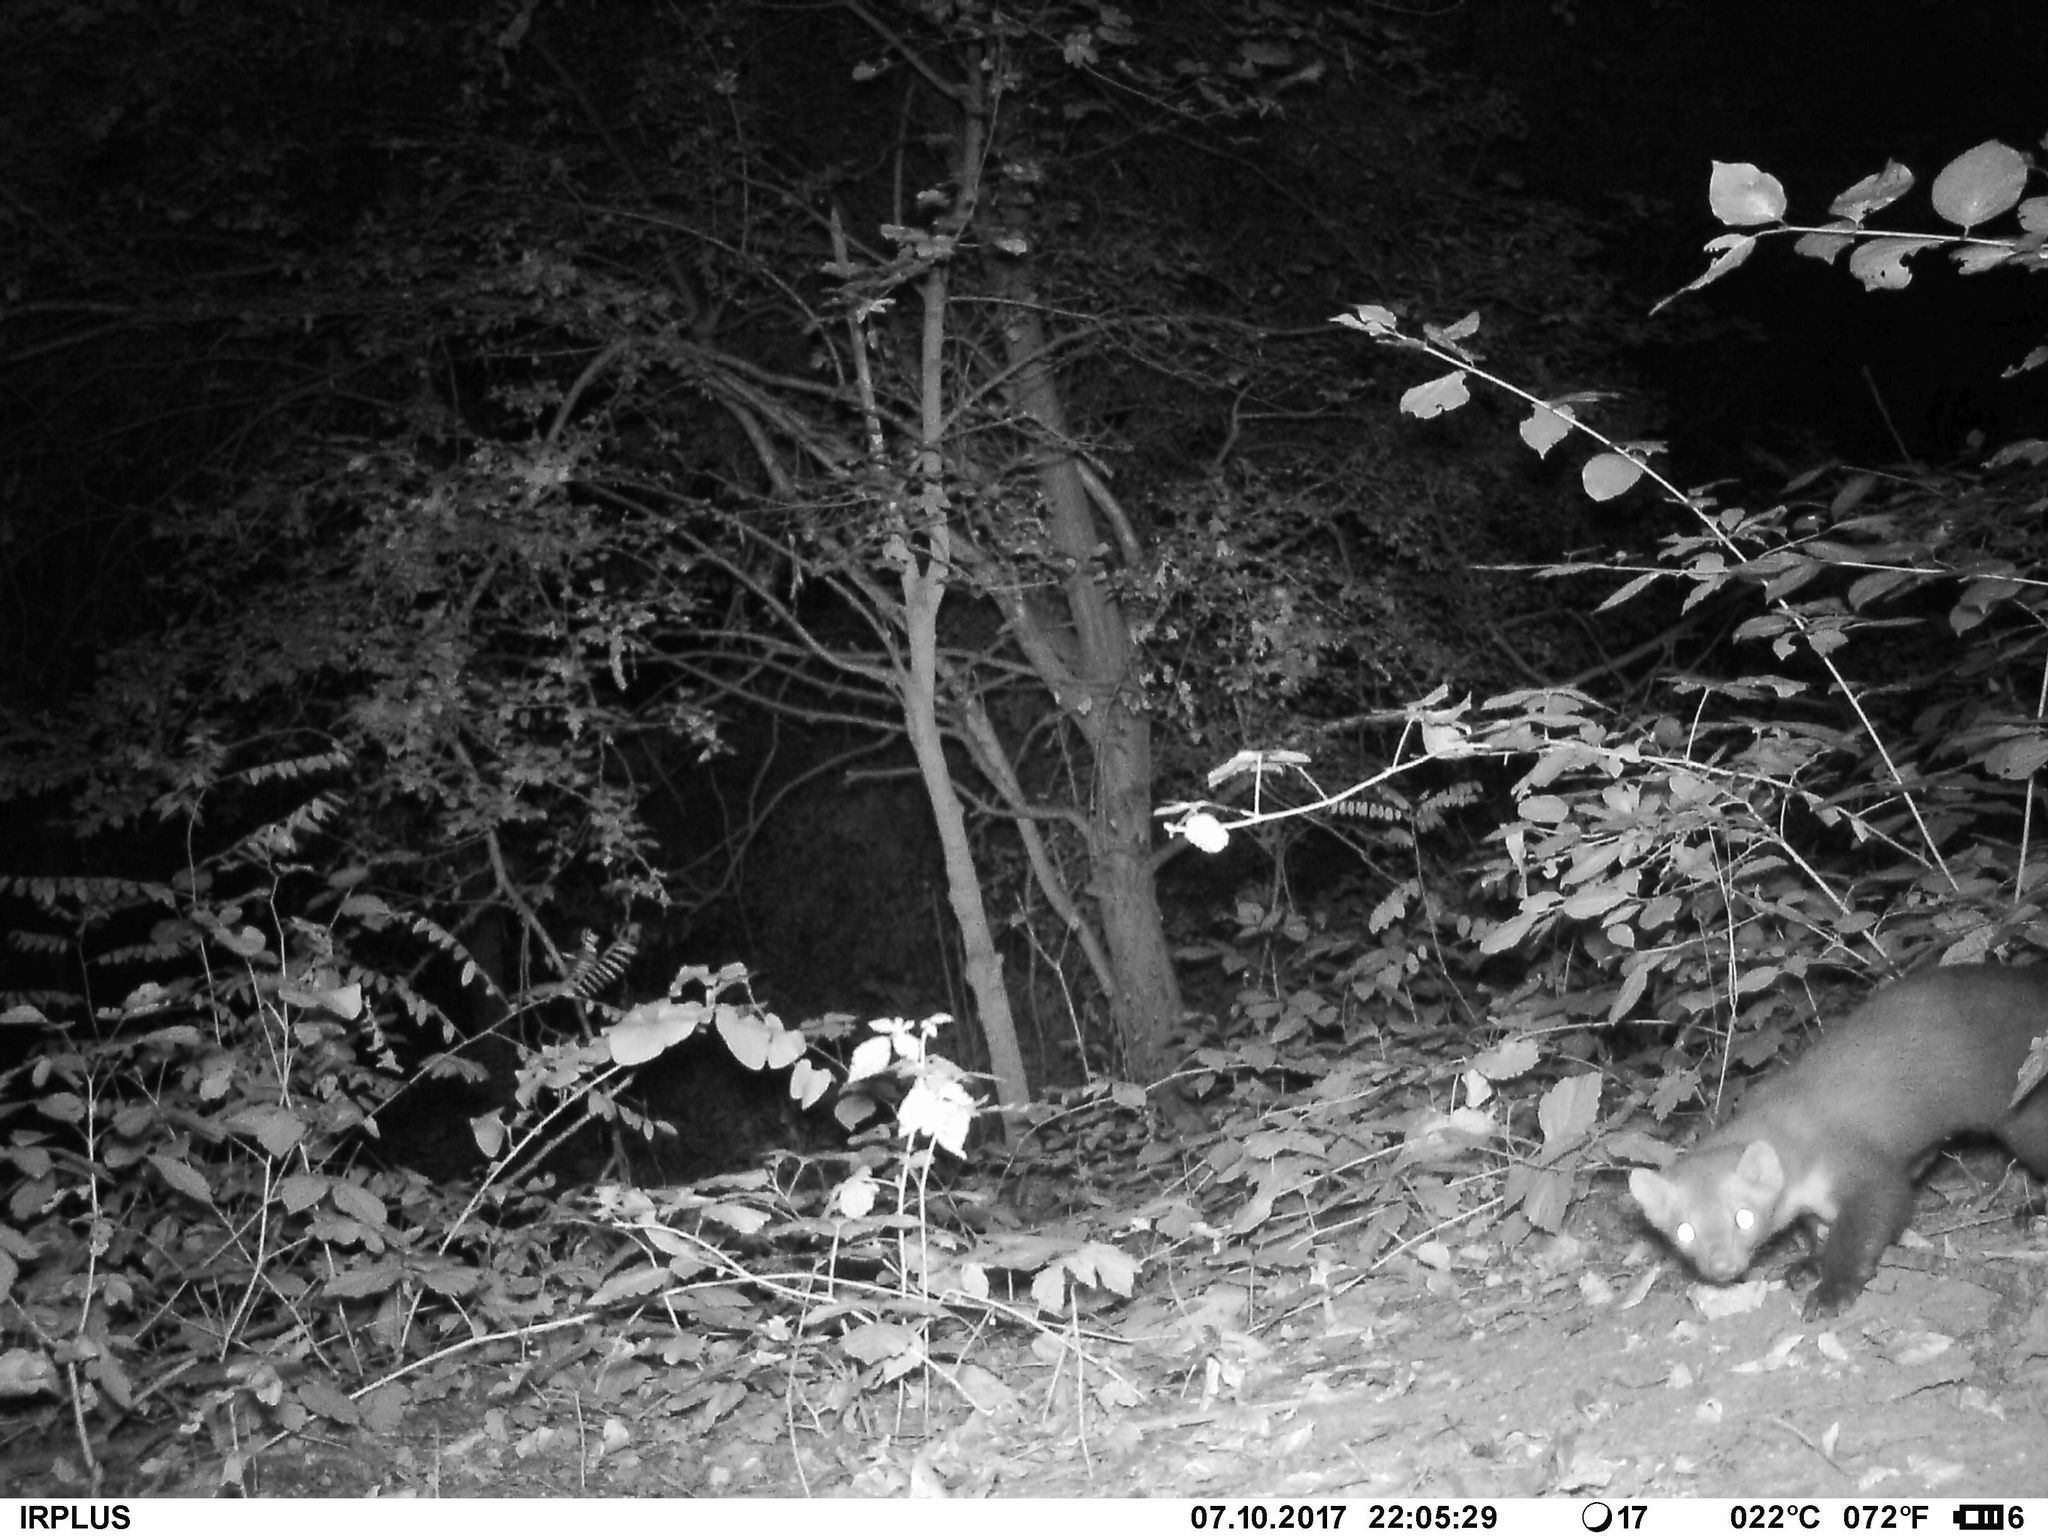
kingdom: Animalia
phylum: Chordata
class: Mammalia
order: Carnivora
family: Mustelidae
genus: Martes
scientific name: Martes foina
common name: Beech marten
